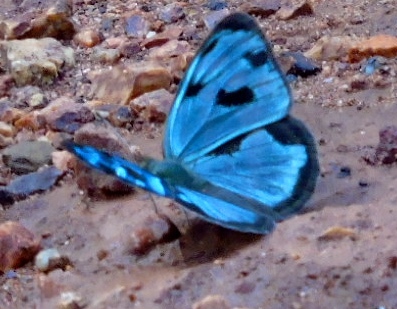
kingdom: Animalia
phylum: Arthropoda
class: Insecta
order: Lepidoptera
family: Nymphalidae
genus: Dynamine
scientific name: Dynamine mylitta
